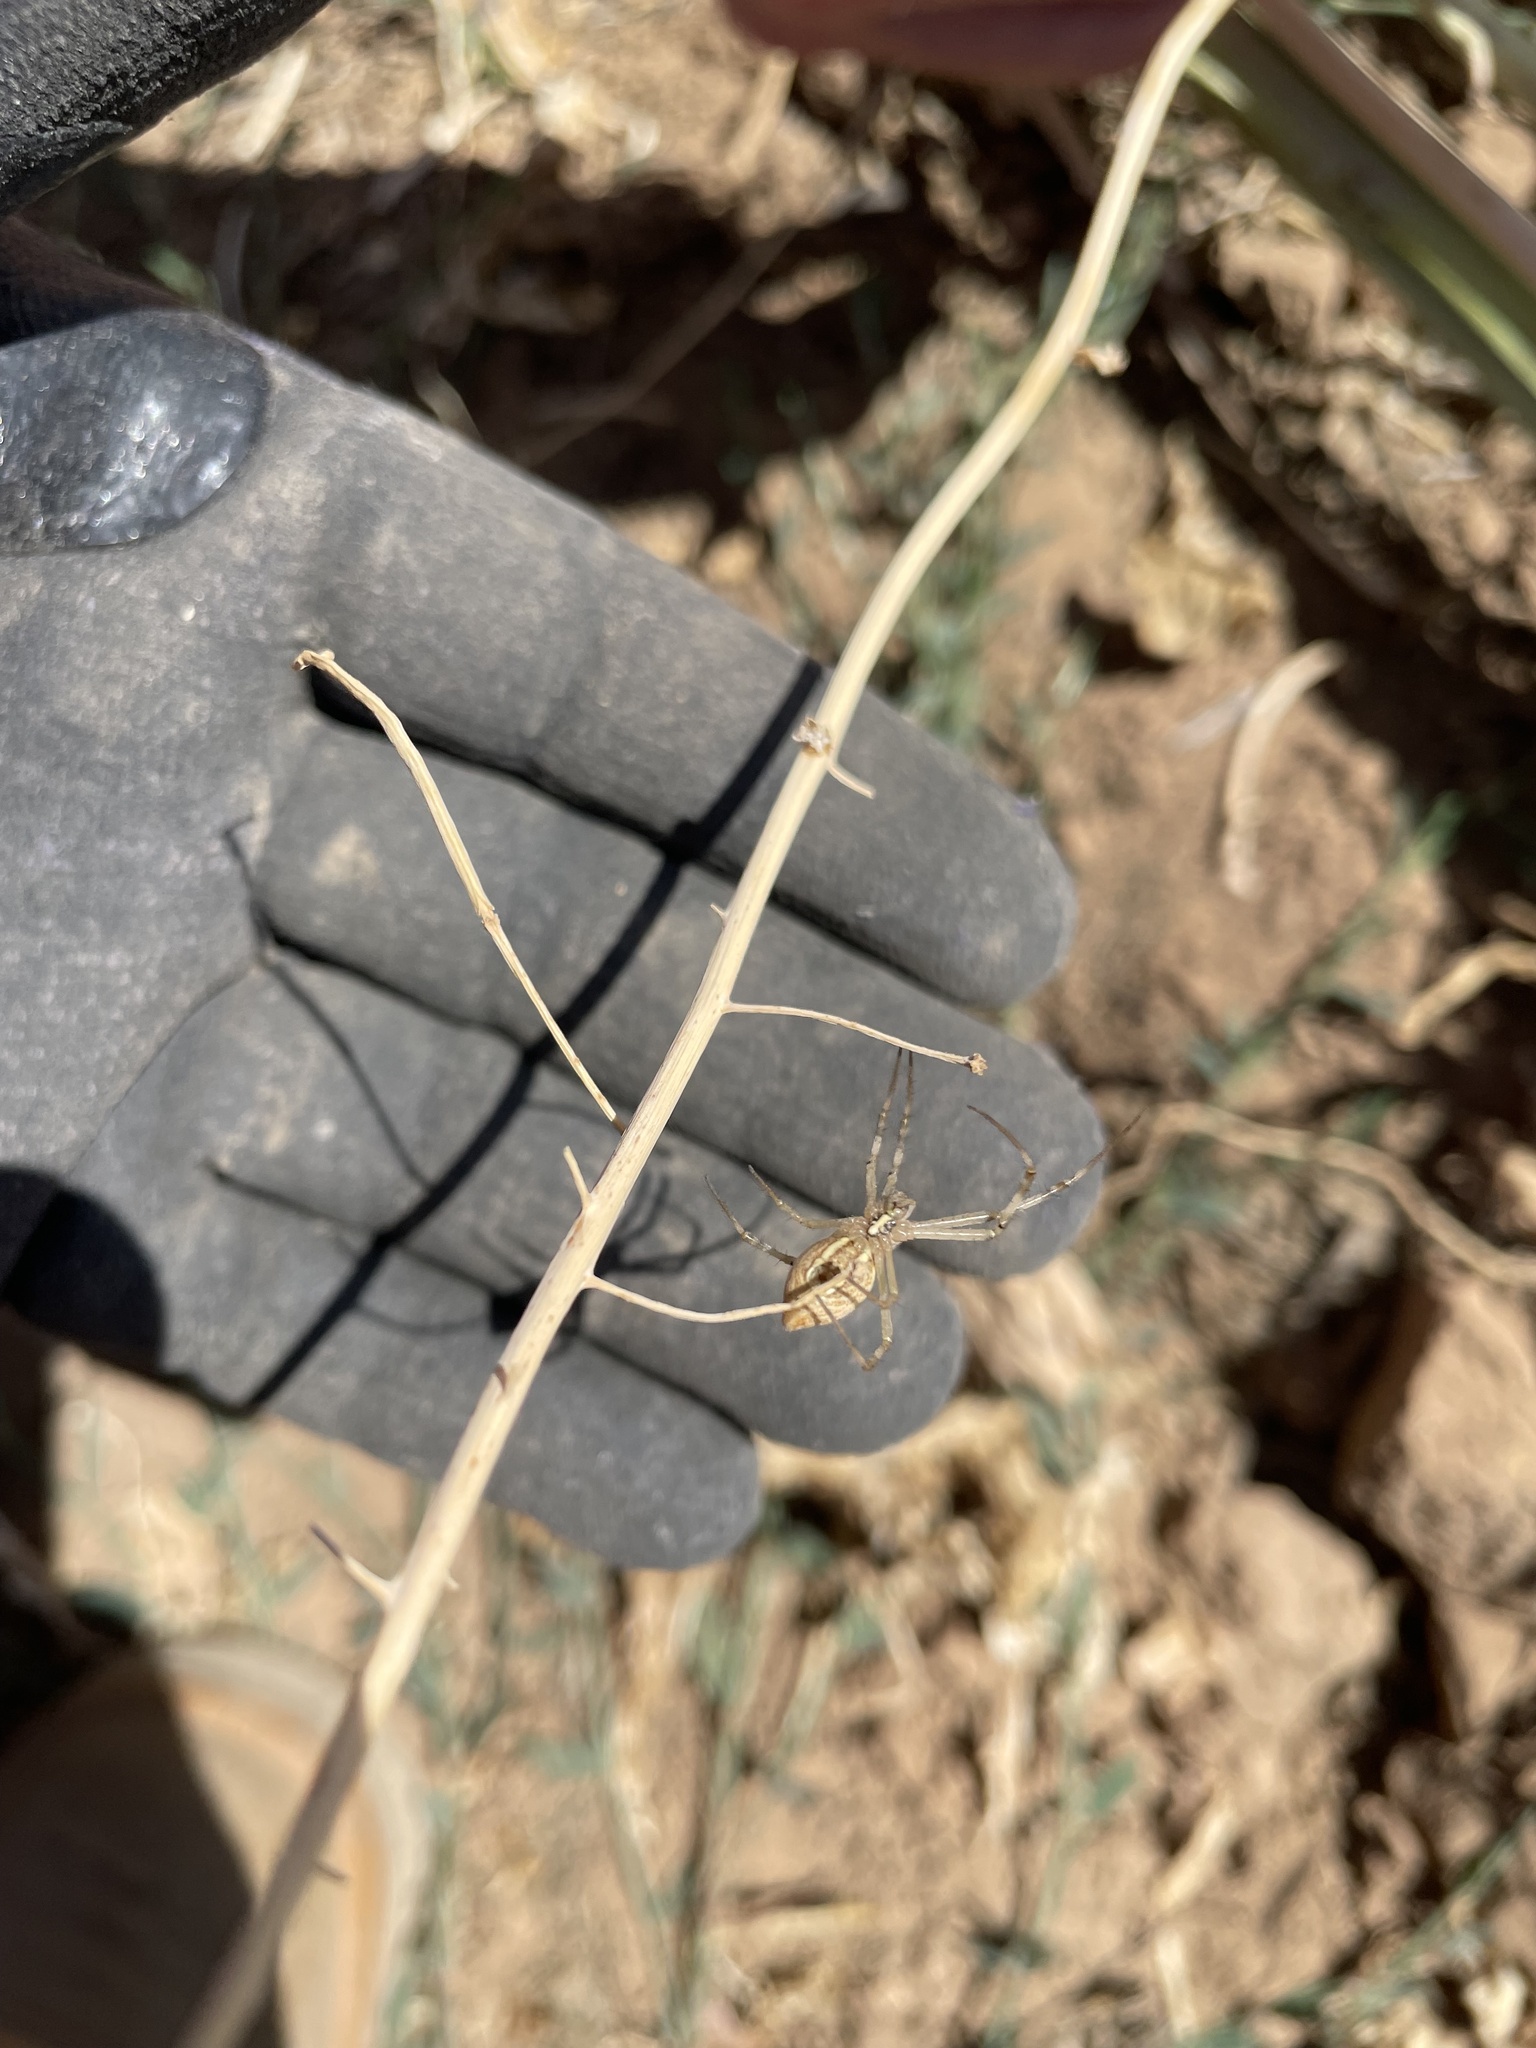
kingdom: Animalia
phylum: Arthropoda
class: Arachnida
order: Araneae
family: Araneidae
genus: Argiope
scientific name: Argiope protensa
